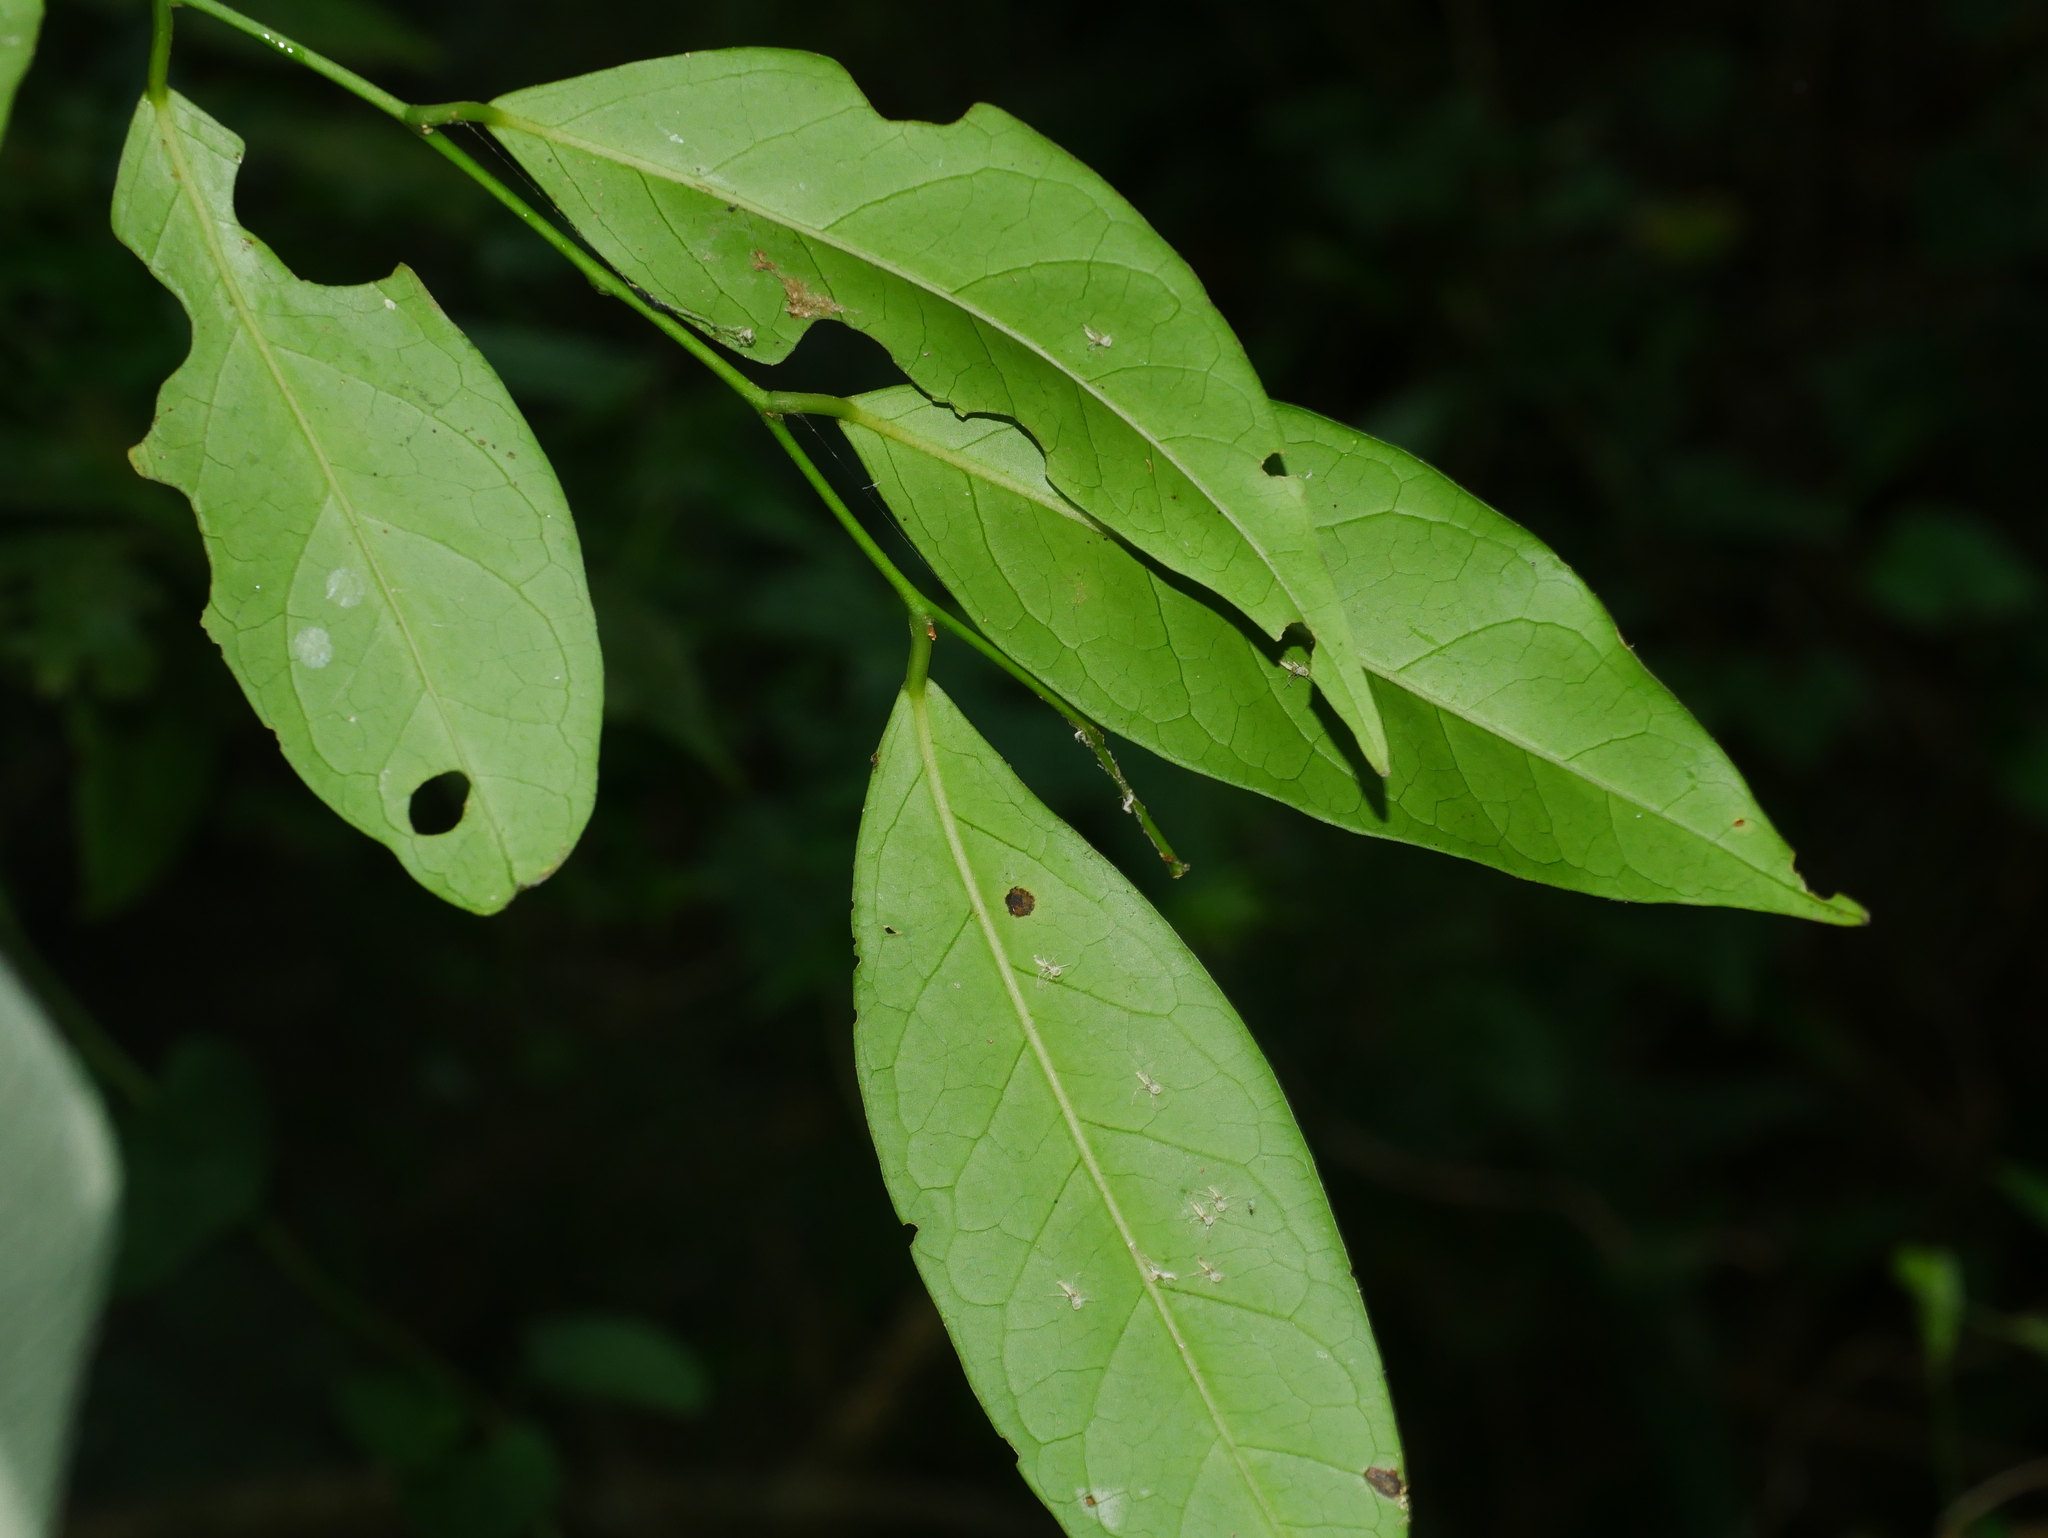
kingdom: Plantae
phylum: Tracheophyta
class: Magnoliopsida
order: Brassicales
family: Capparaceae
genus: Capparis
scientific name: Capparis sabiifolia
